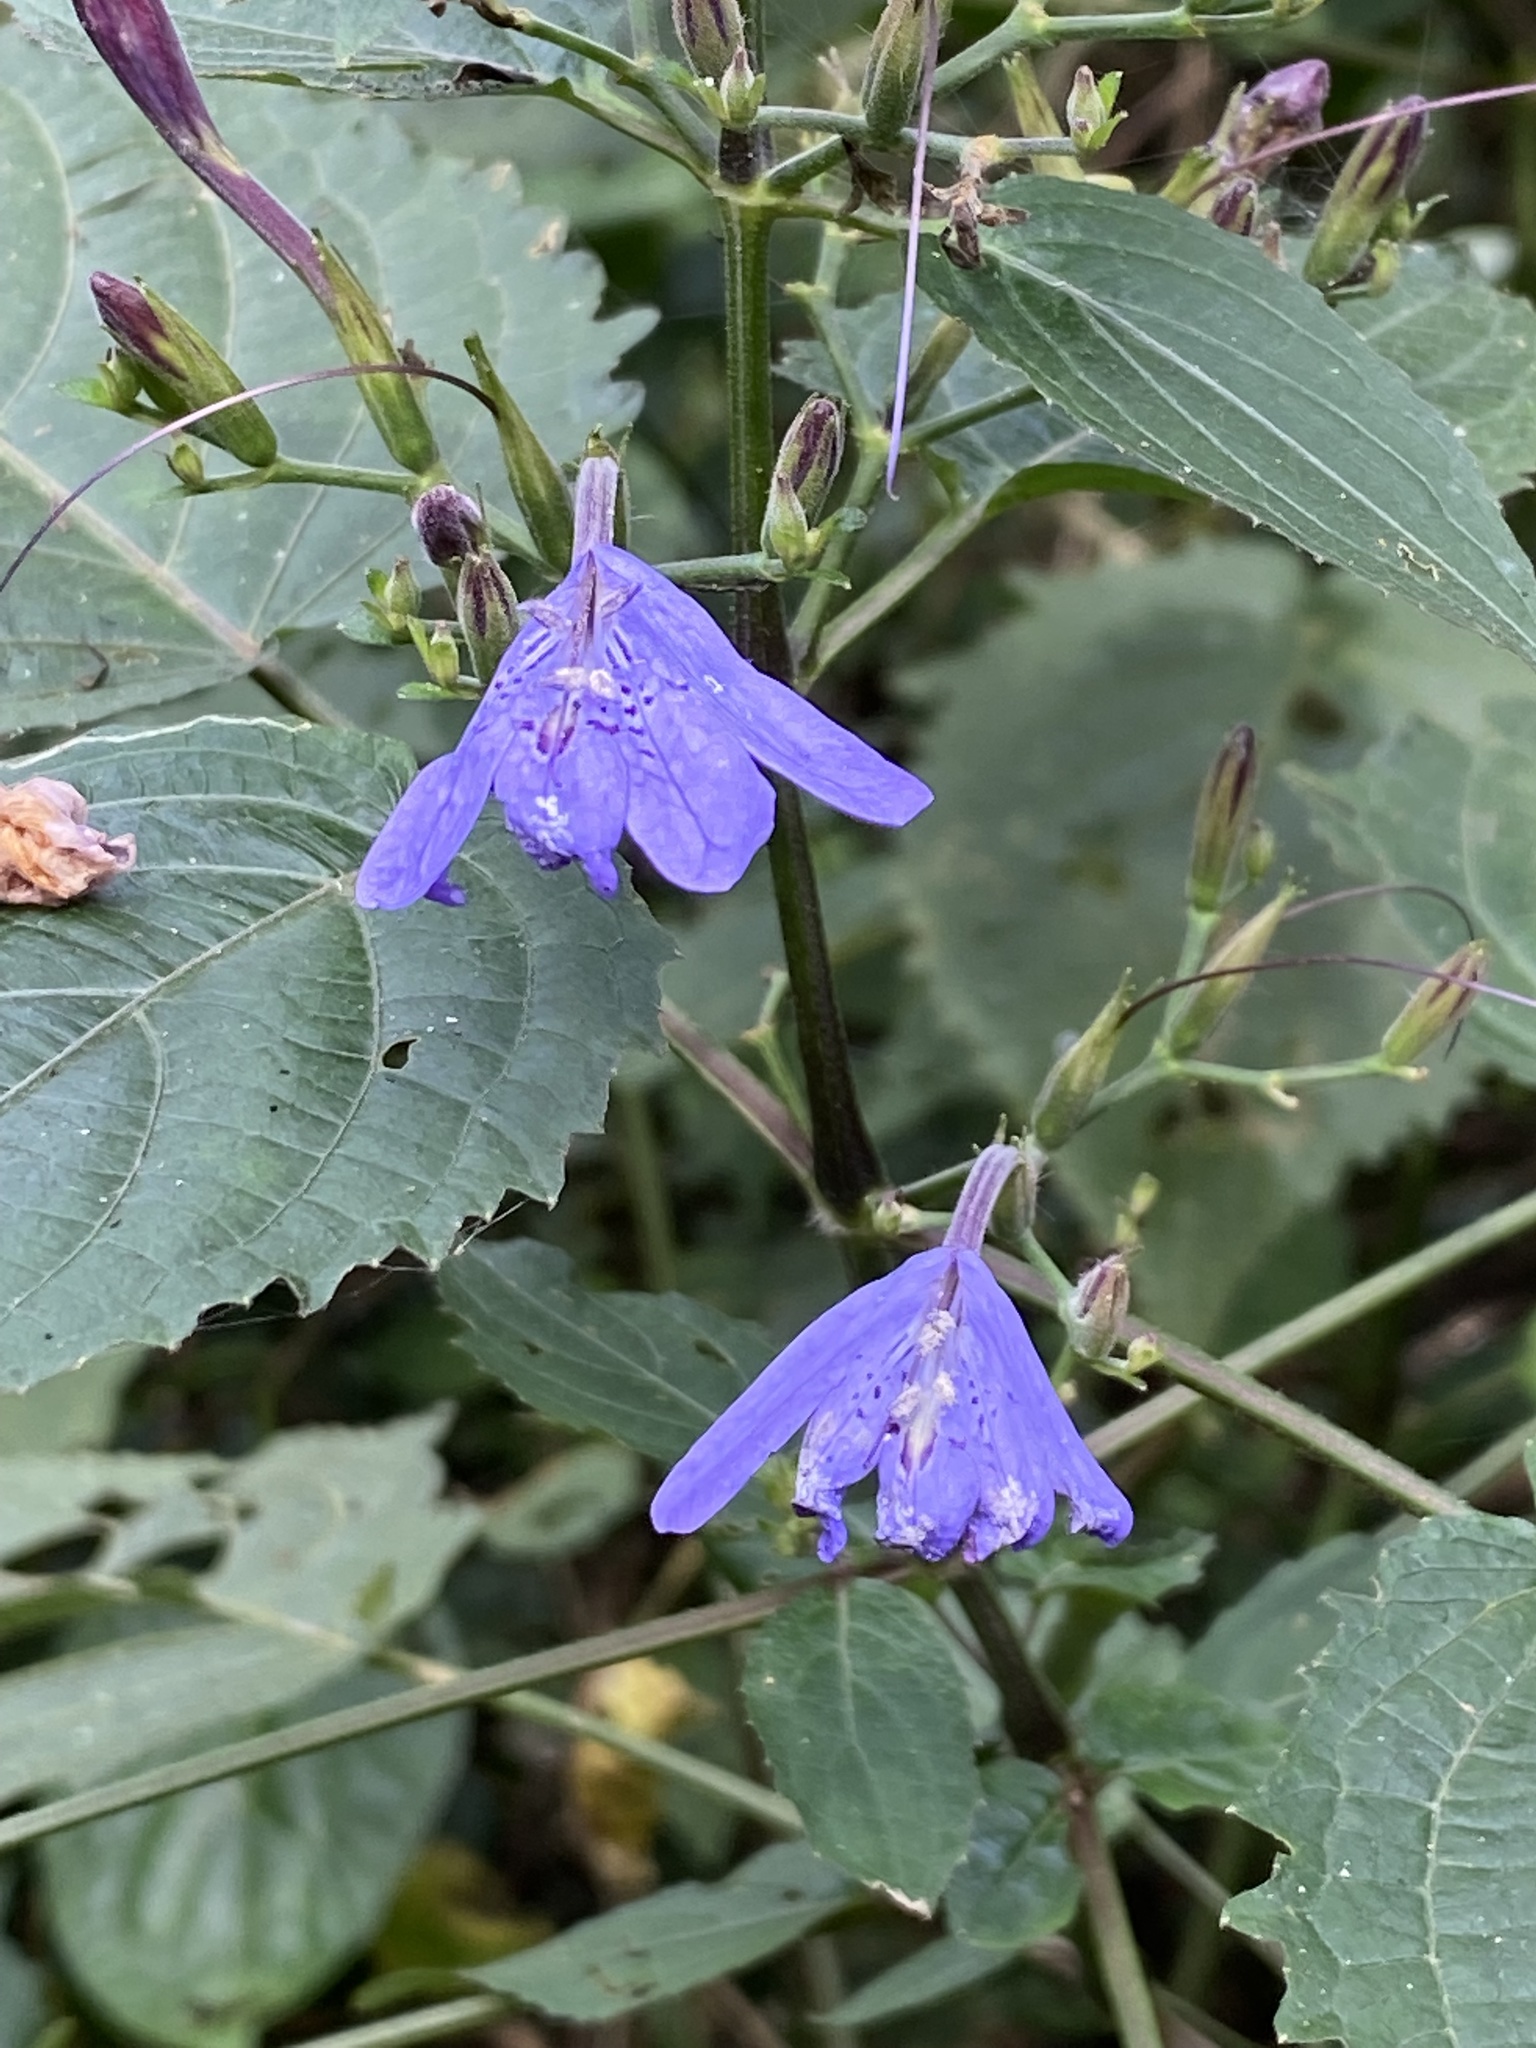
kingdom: Plantae
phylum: Tracheophyta
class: Magnoliopsida
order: Lamiales
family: Acanthaceae
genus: Eremomastax
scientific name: Eremomastax speciosa
